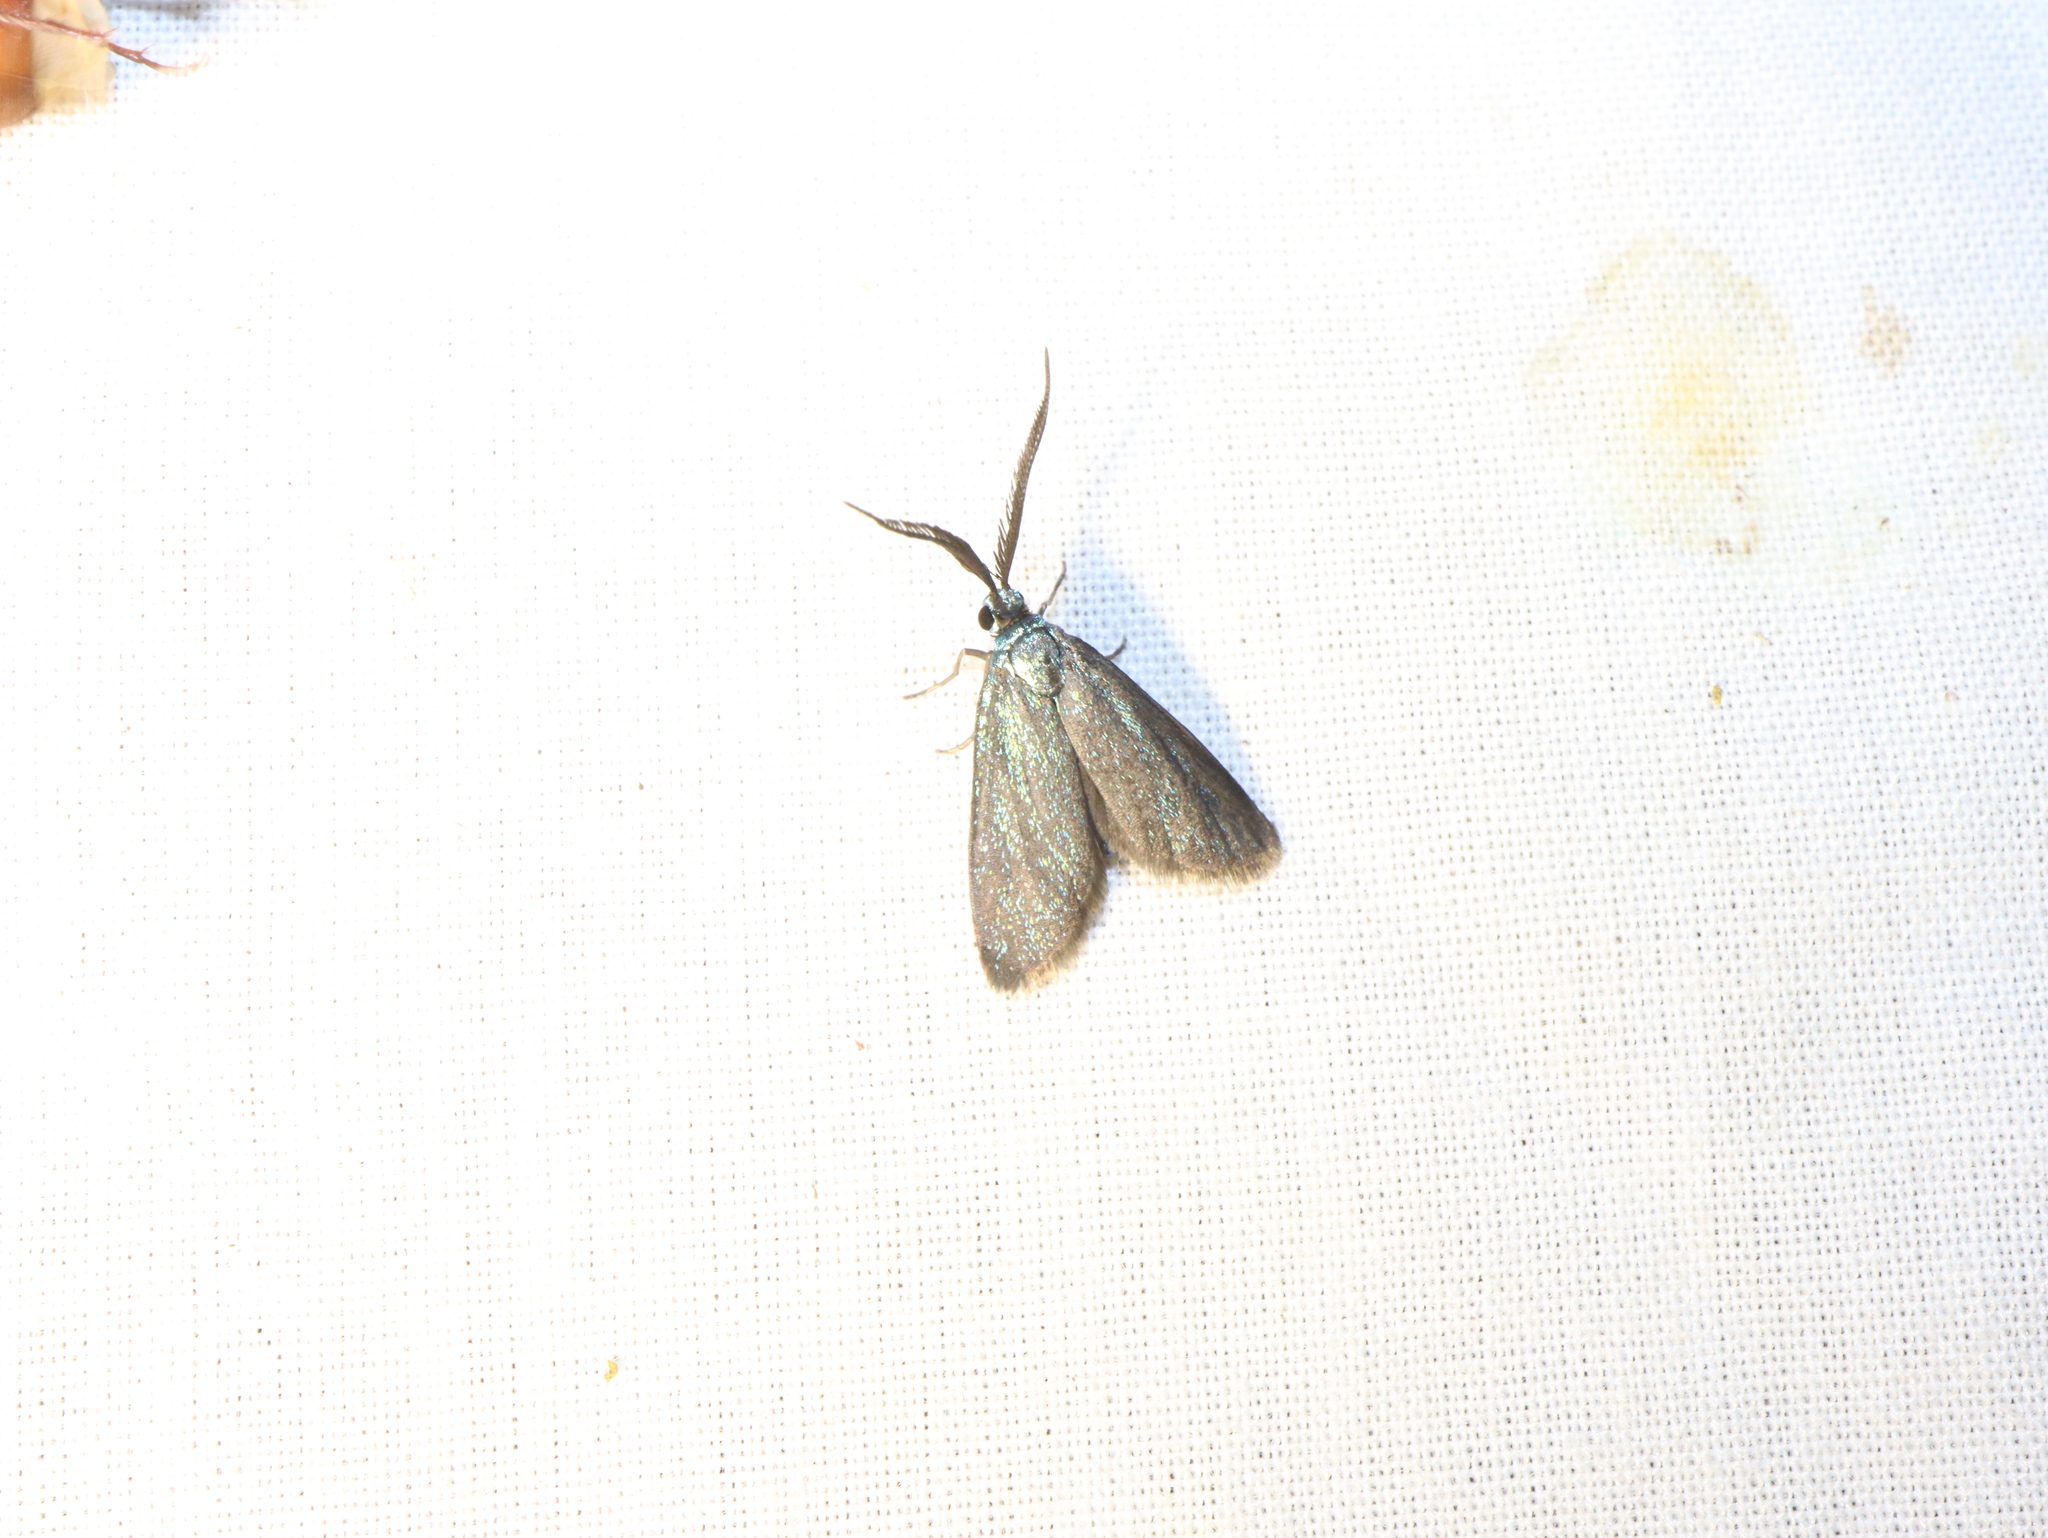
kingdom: Animalia
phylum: Arthropoda
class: Insecta
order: Lepidoptera
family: Zygaenidae
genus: Pollanisus
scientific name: Pollanisus nocturna
